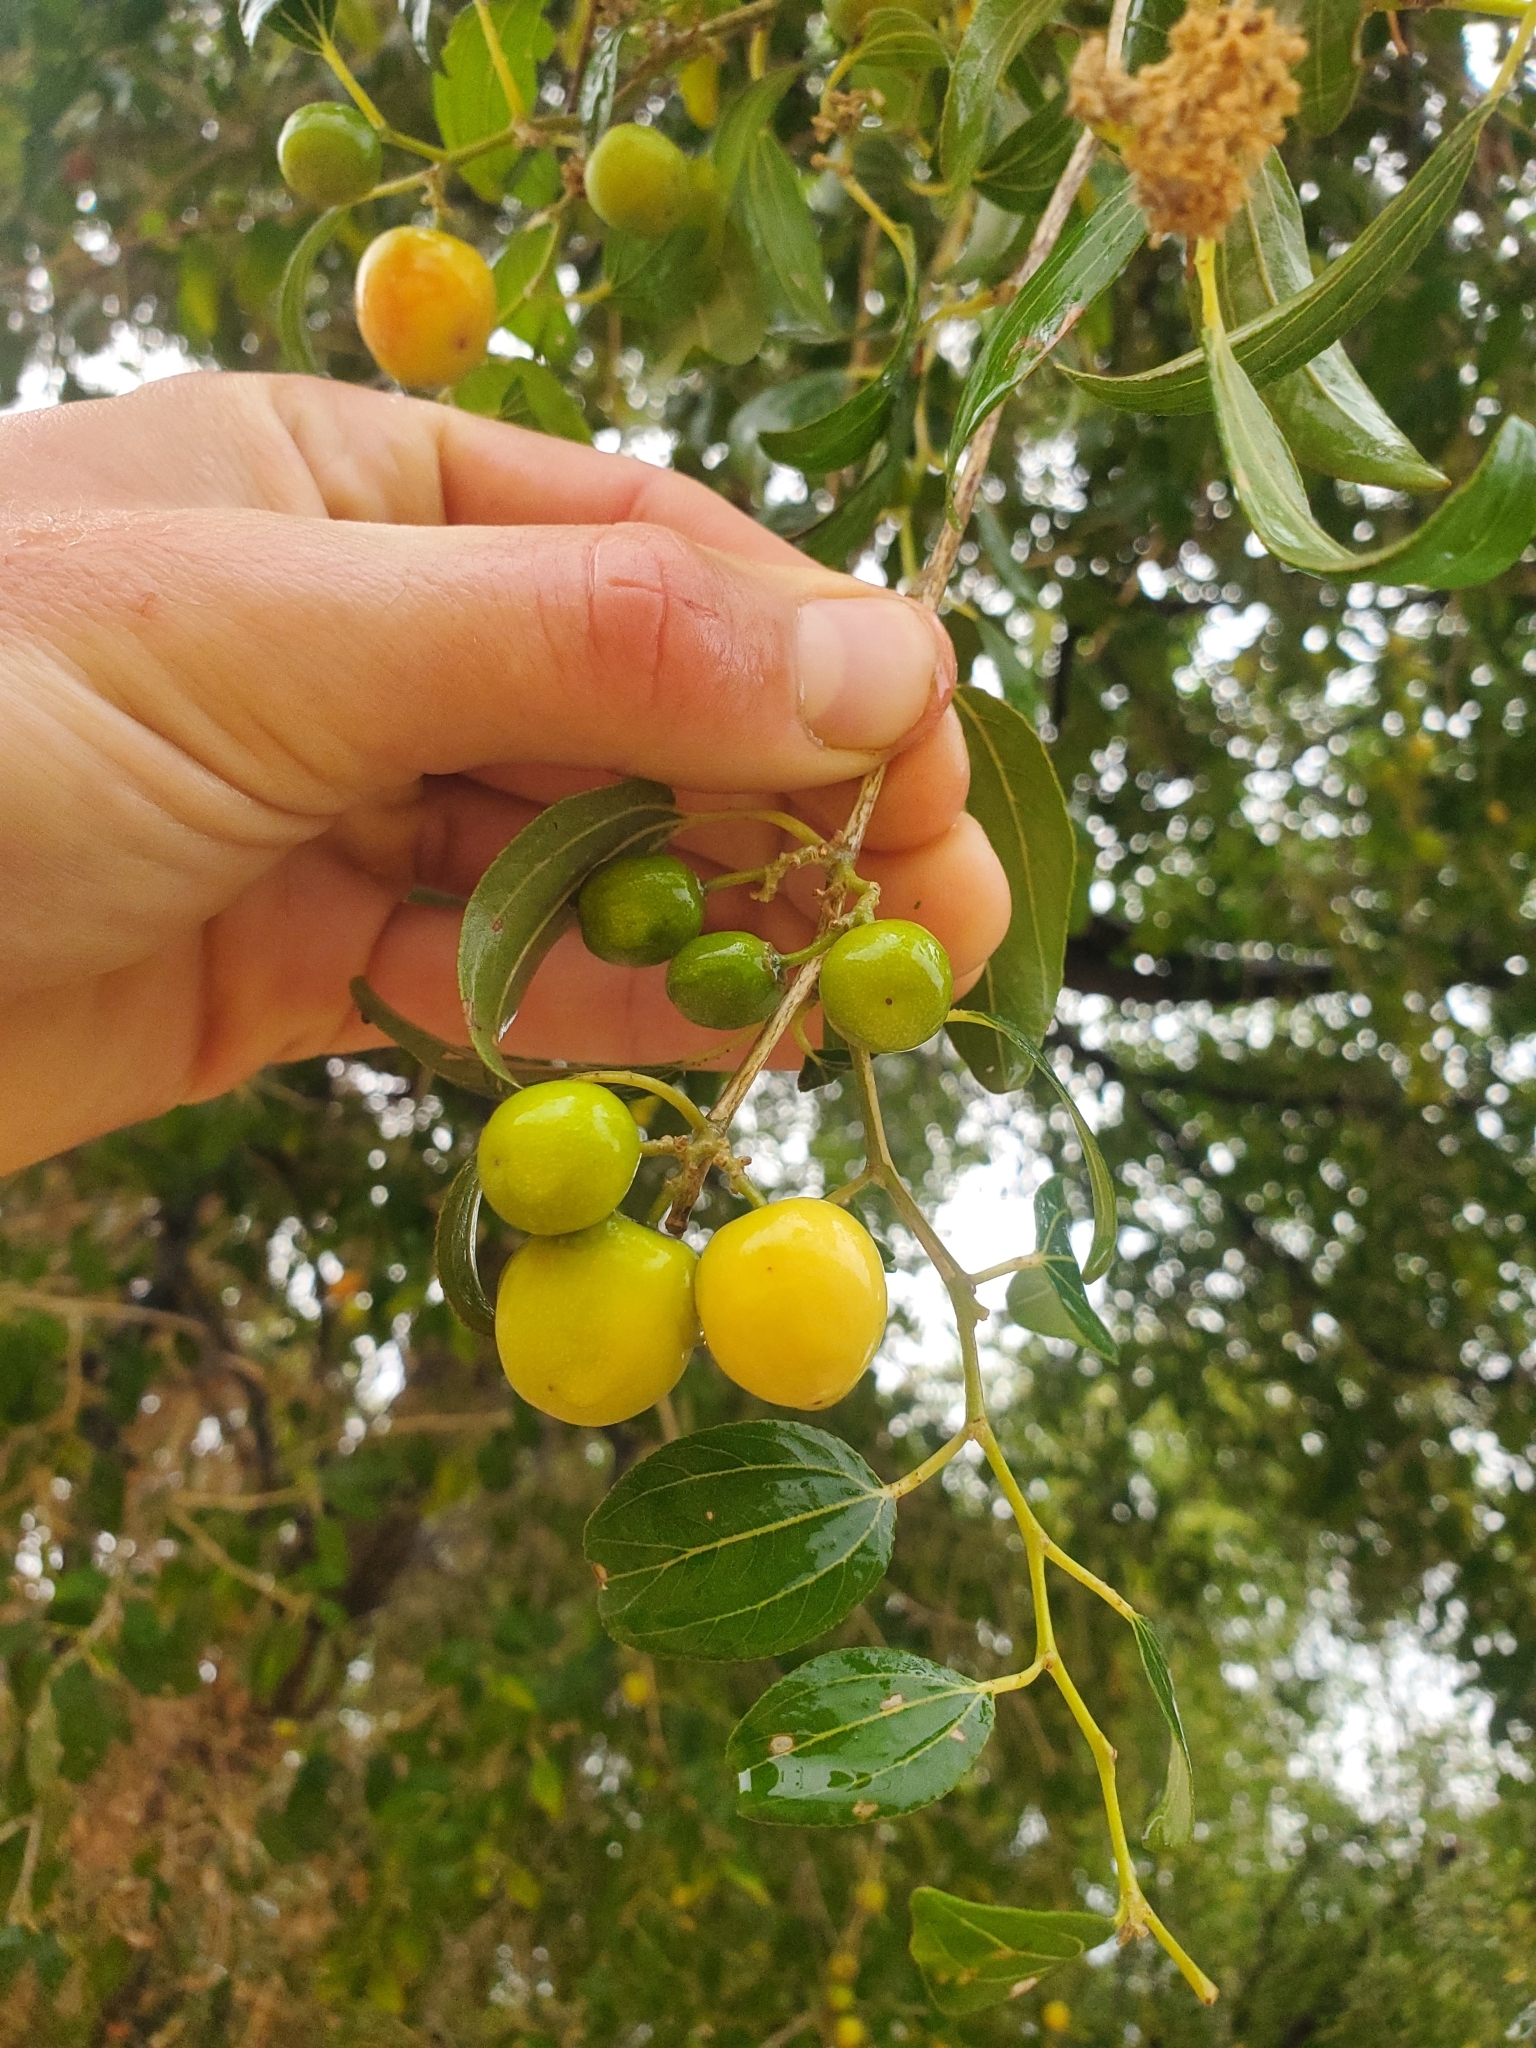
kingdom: Plantae
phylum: Tracheophyta
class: Magnoliopsida
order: Rosales
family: Rhamnaceae
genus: Ziziphus
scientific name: Ziziphus spina-christi
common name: Syrian christ-thorn
